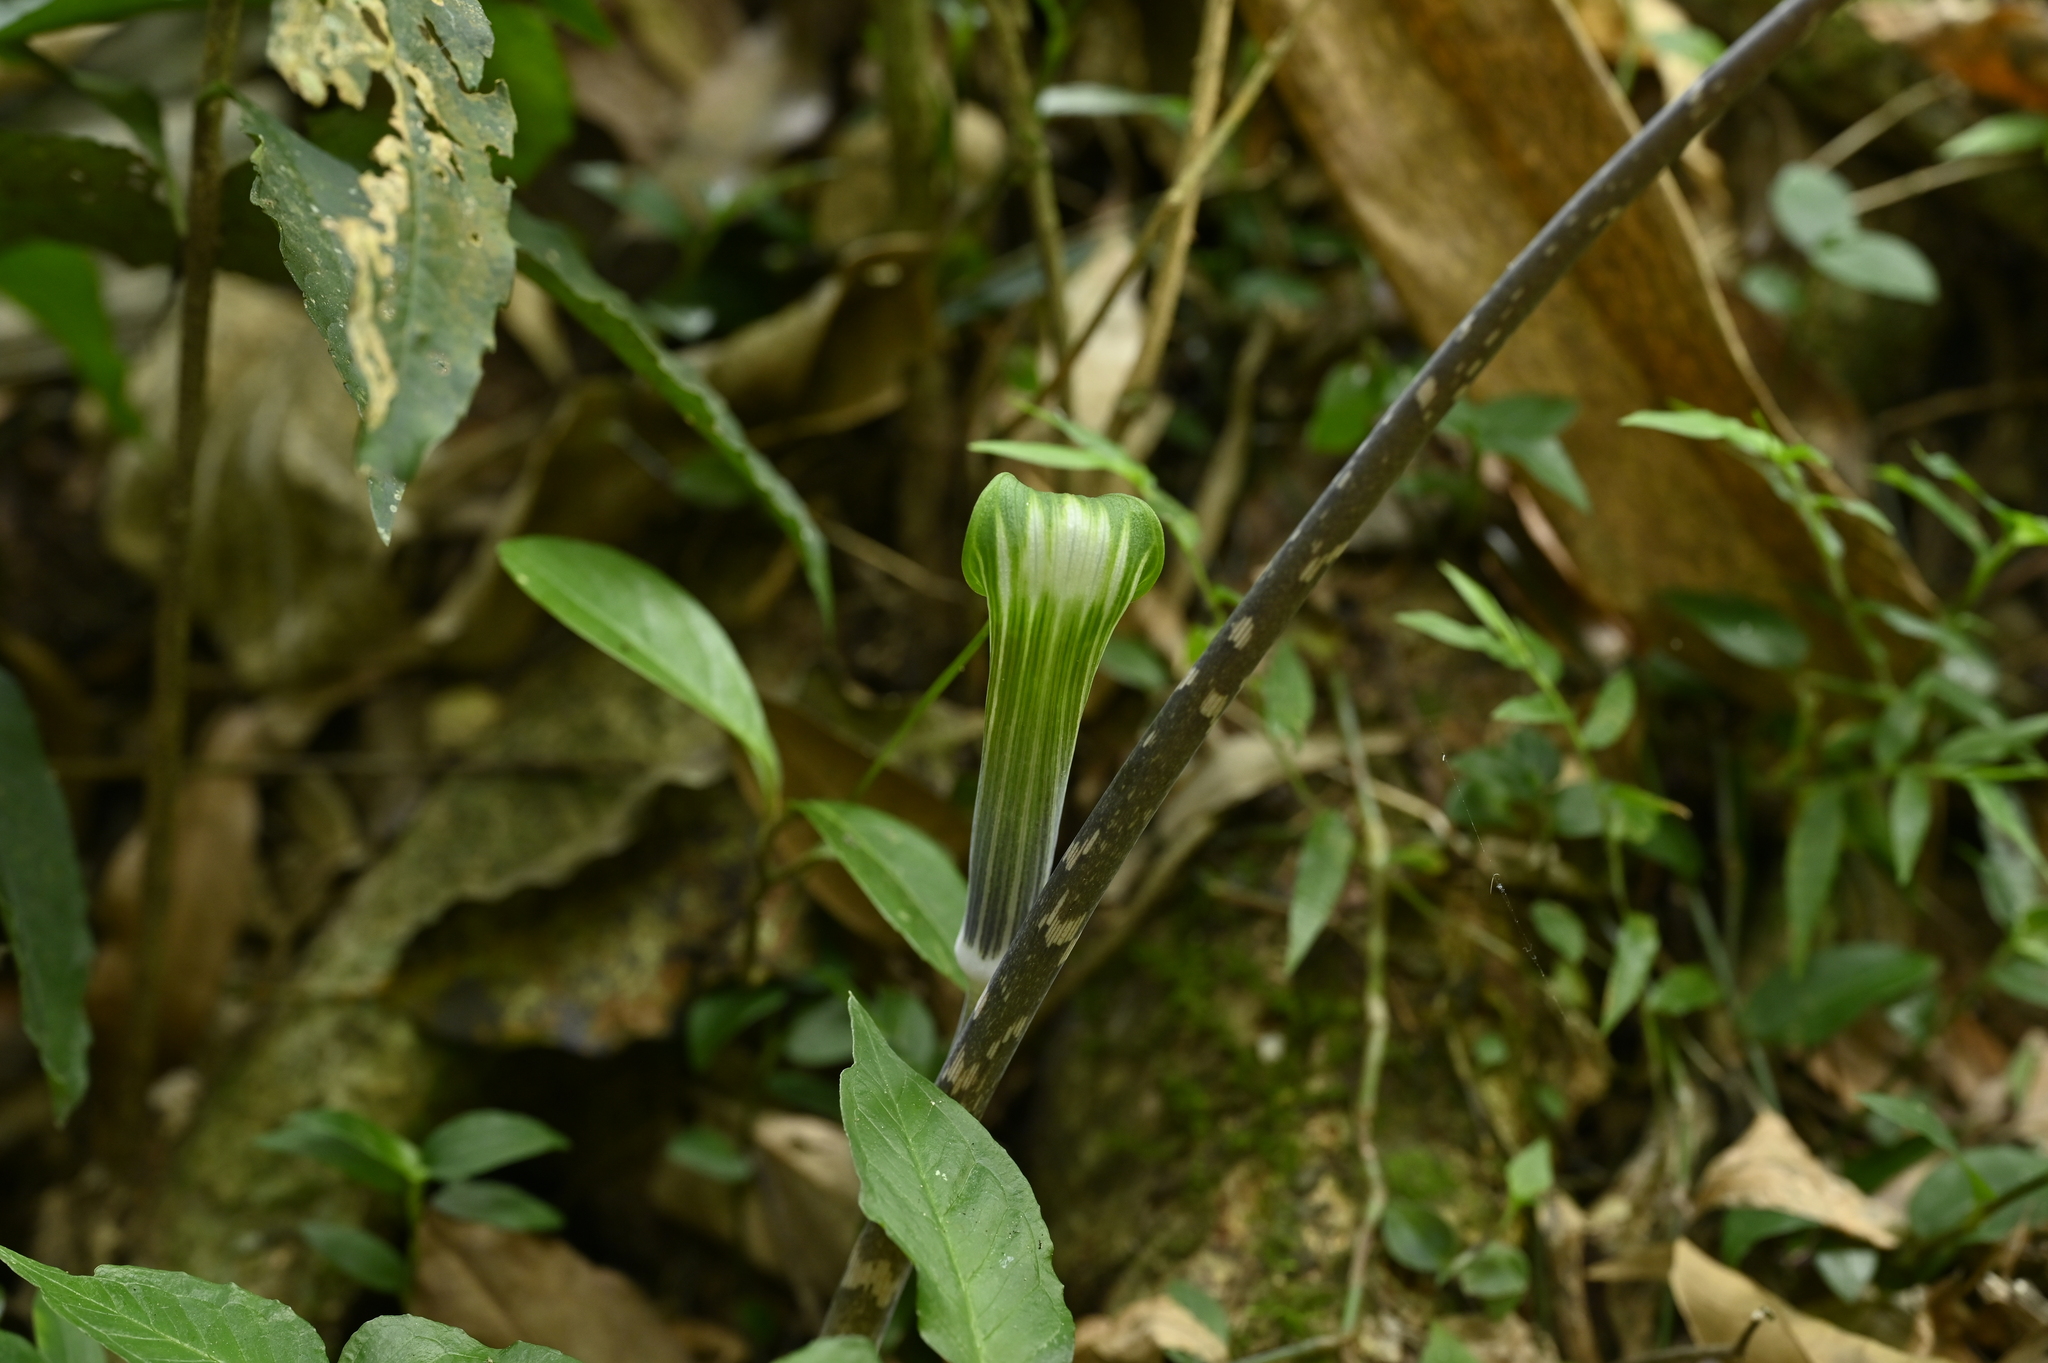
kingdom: Plantae
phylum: Tracheophyta
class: Liliopsida
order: Alismatales
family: Araceae
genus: Arisaema
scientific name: Arisaema formosanum
